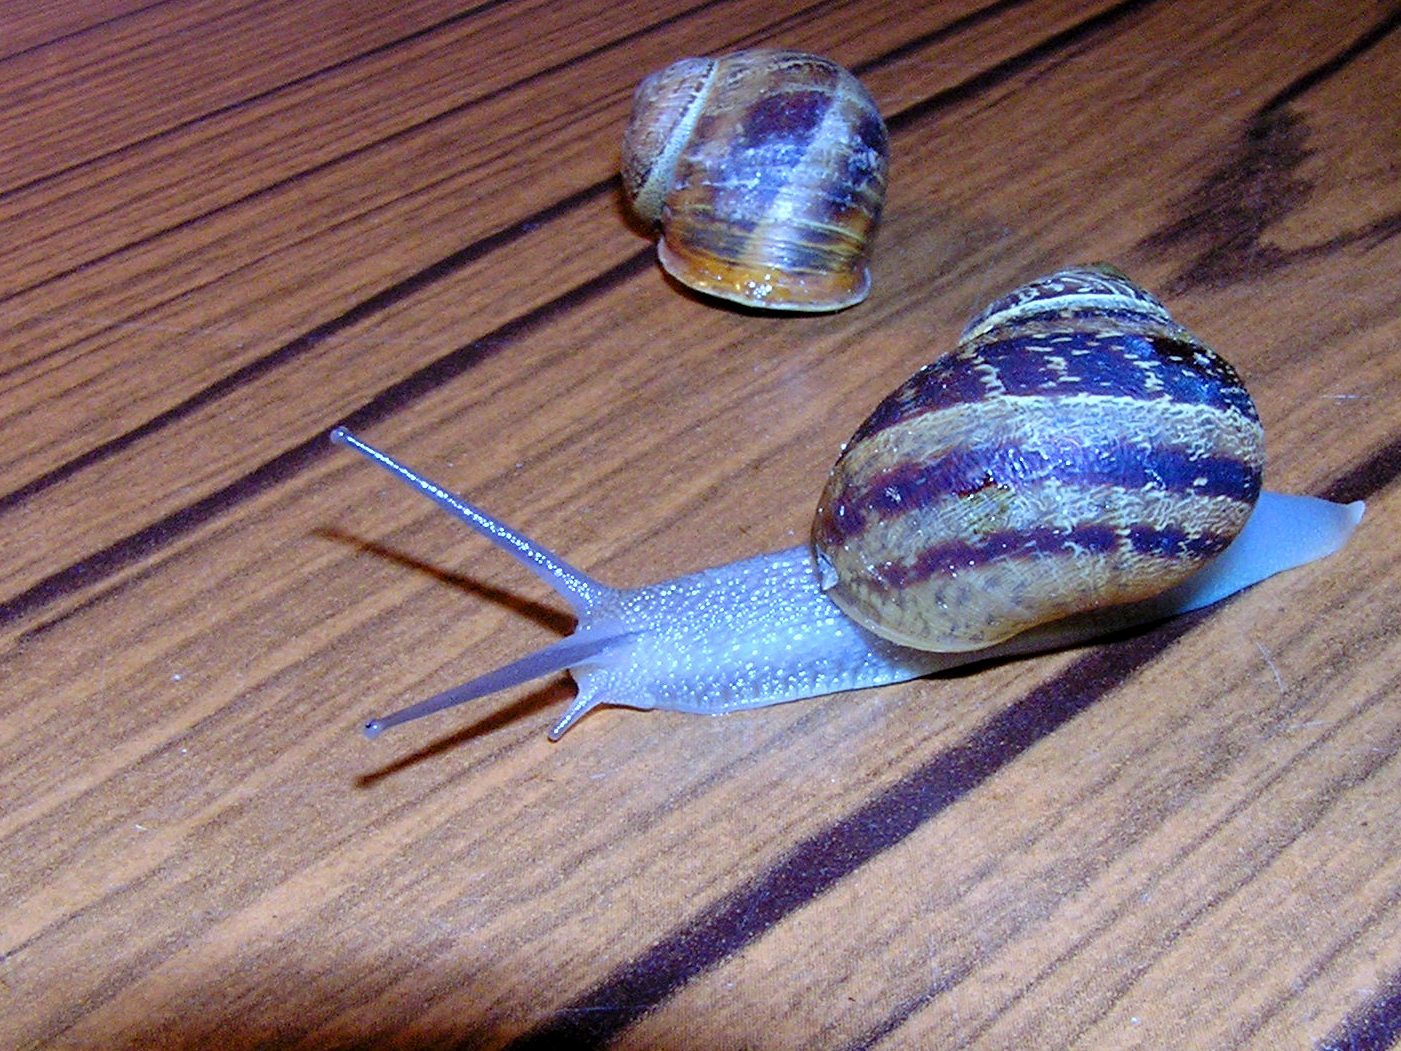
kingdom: Animalia
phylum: Mollusca
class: Gastropoda
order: Stylommatophora
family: Helicidae
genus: Cornu
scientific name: Cornu aspersum
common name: Brown garden snail
